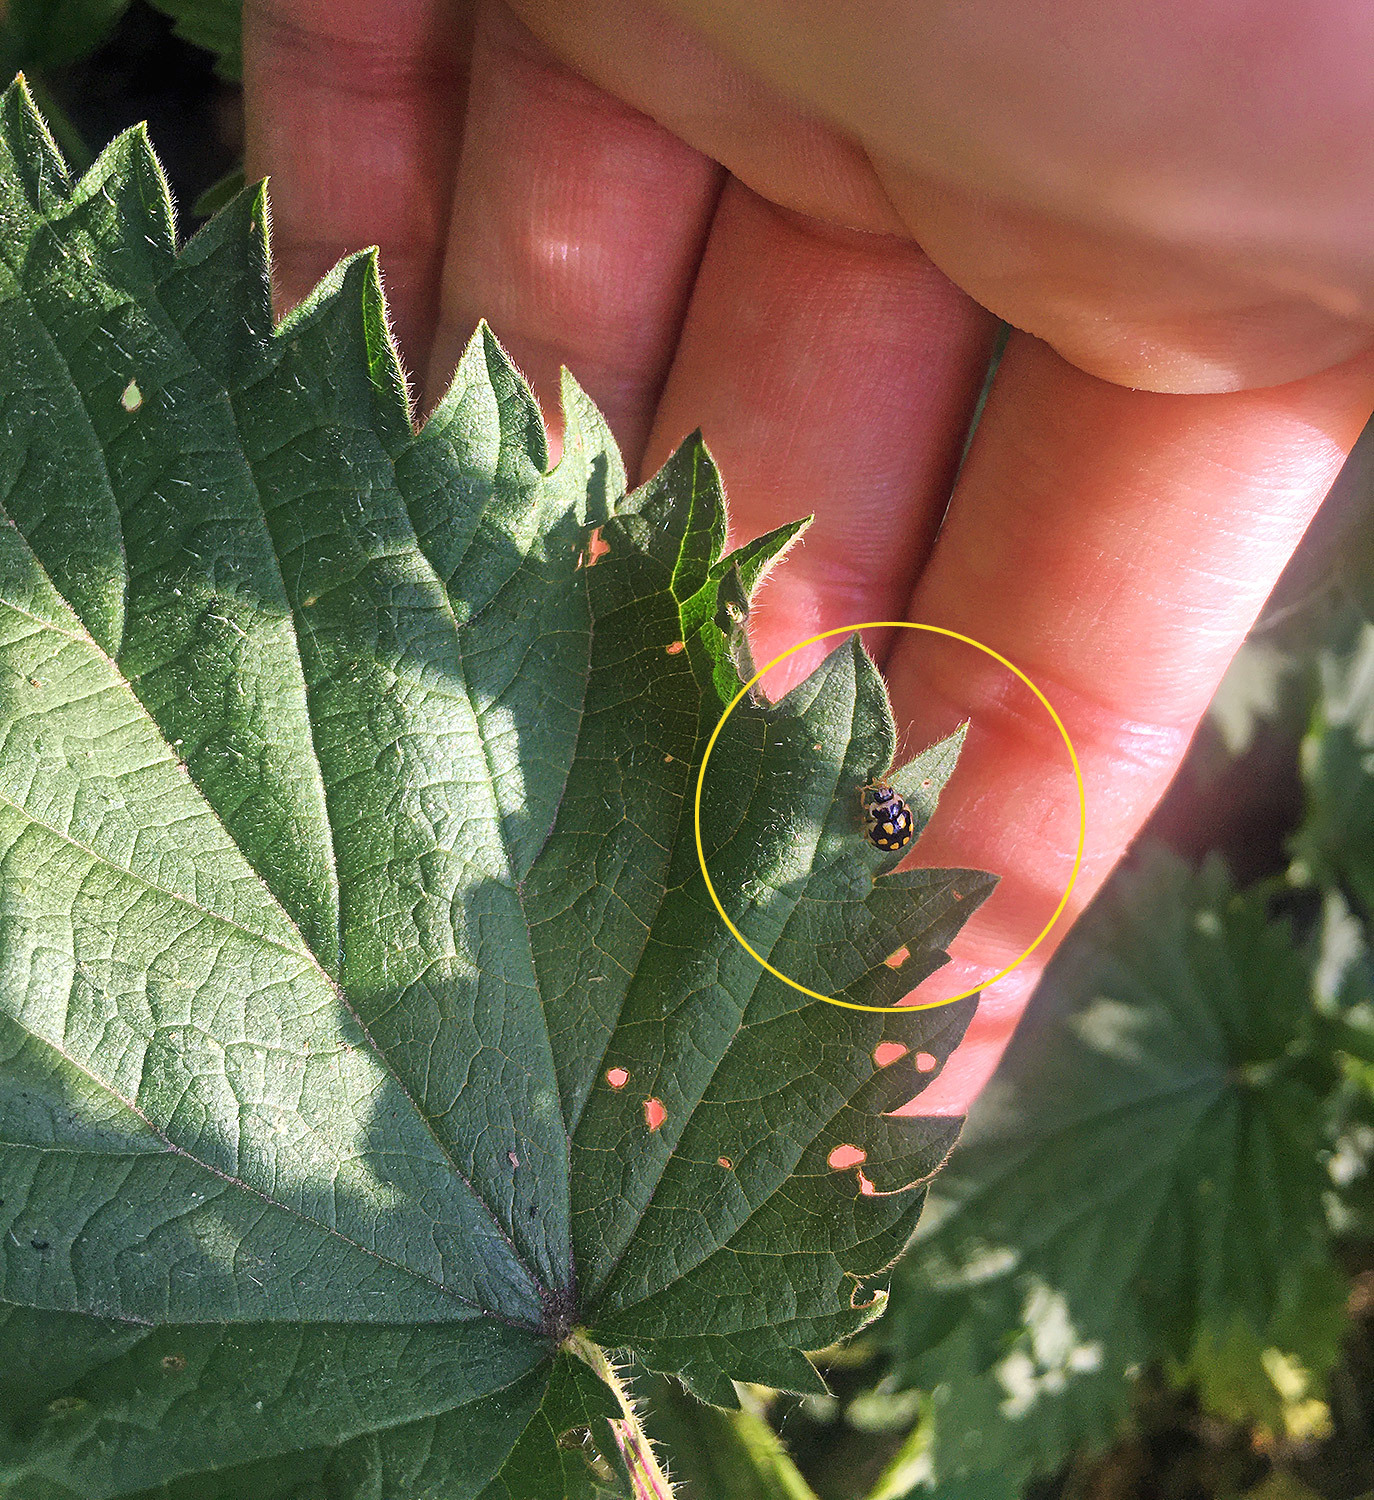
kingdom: Animalia
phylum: Arthropoda
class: Insecta
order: Coleoptera
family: Coccinellidae
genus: Propylaea
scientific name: Propylaea quatuordecimpunctata
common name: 14-spotted ladybird beetle
